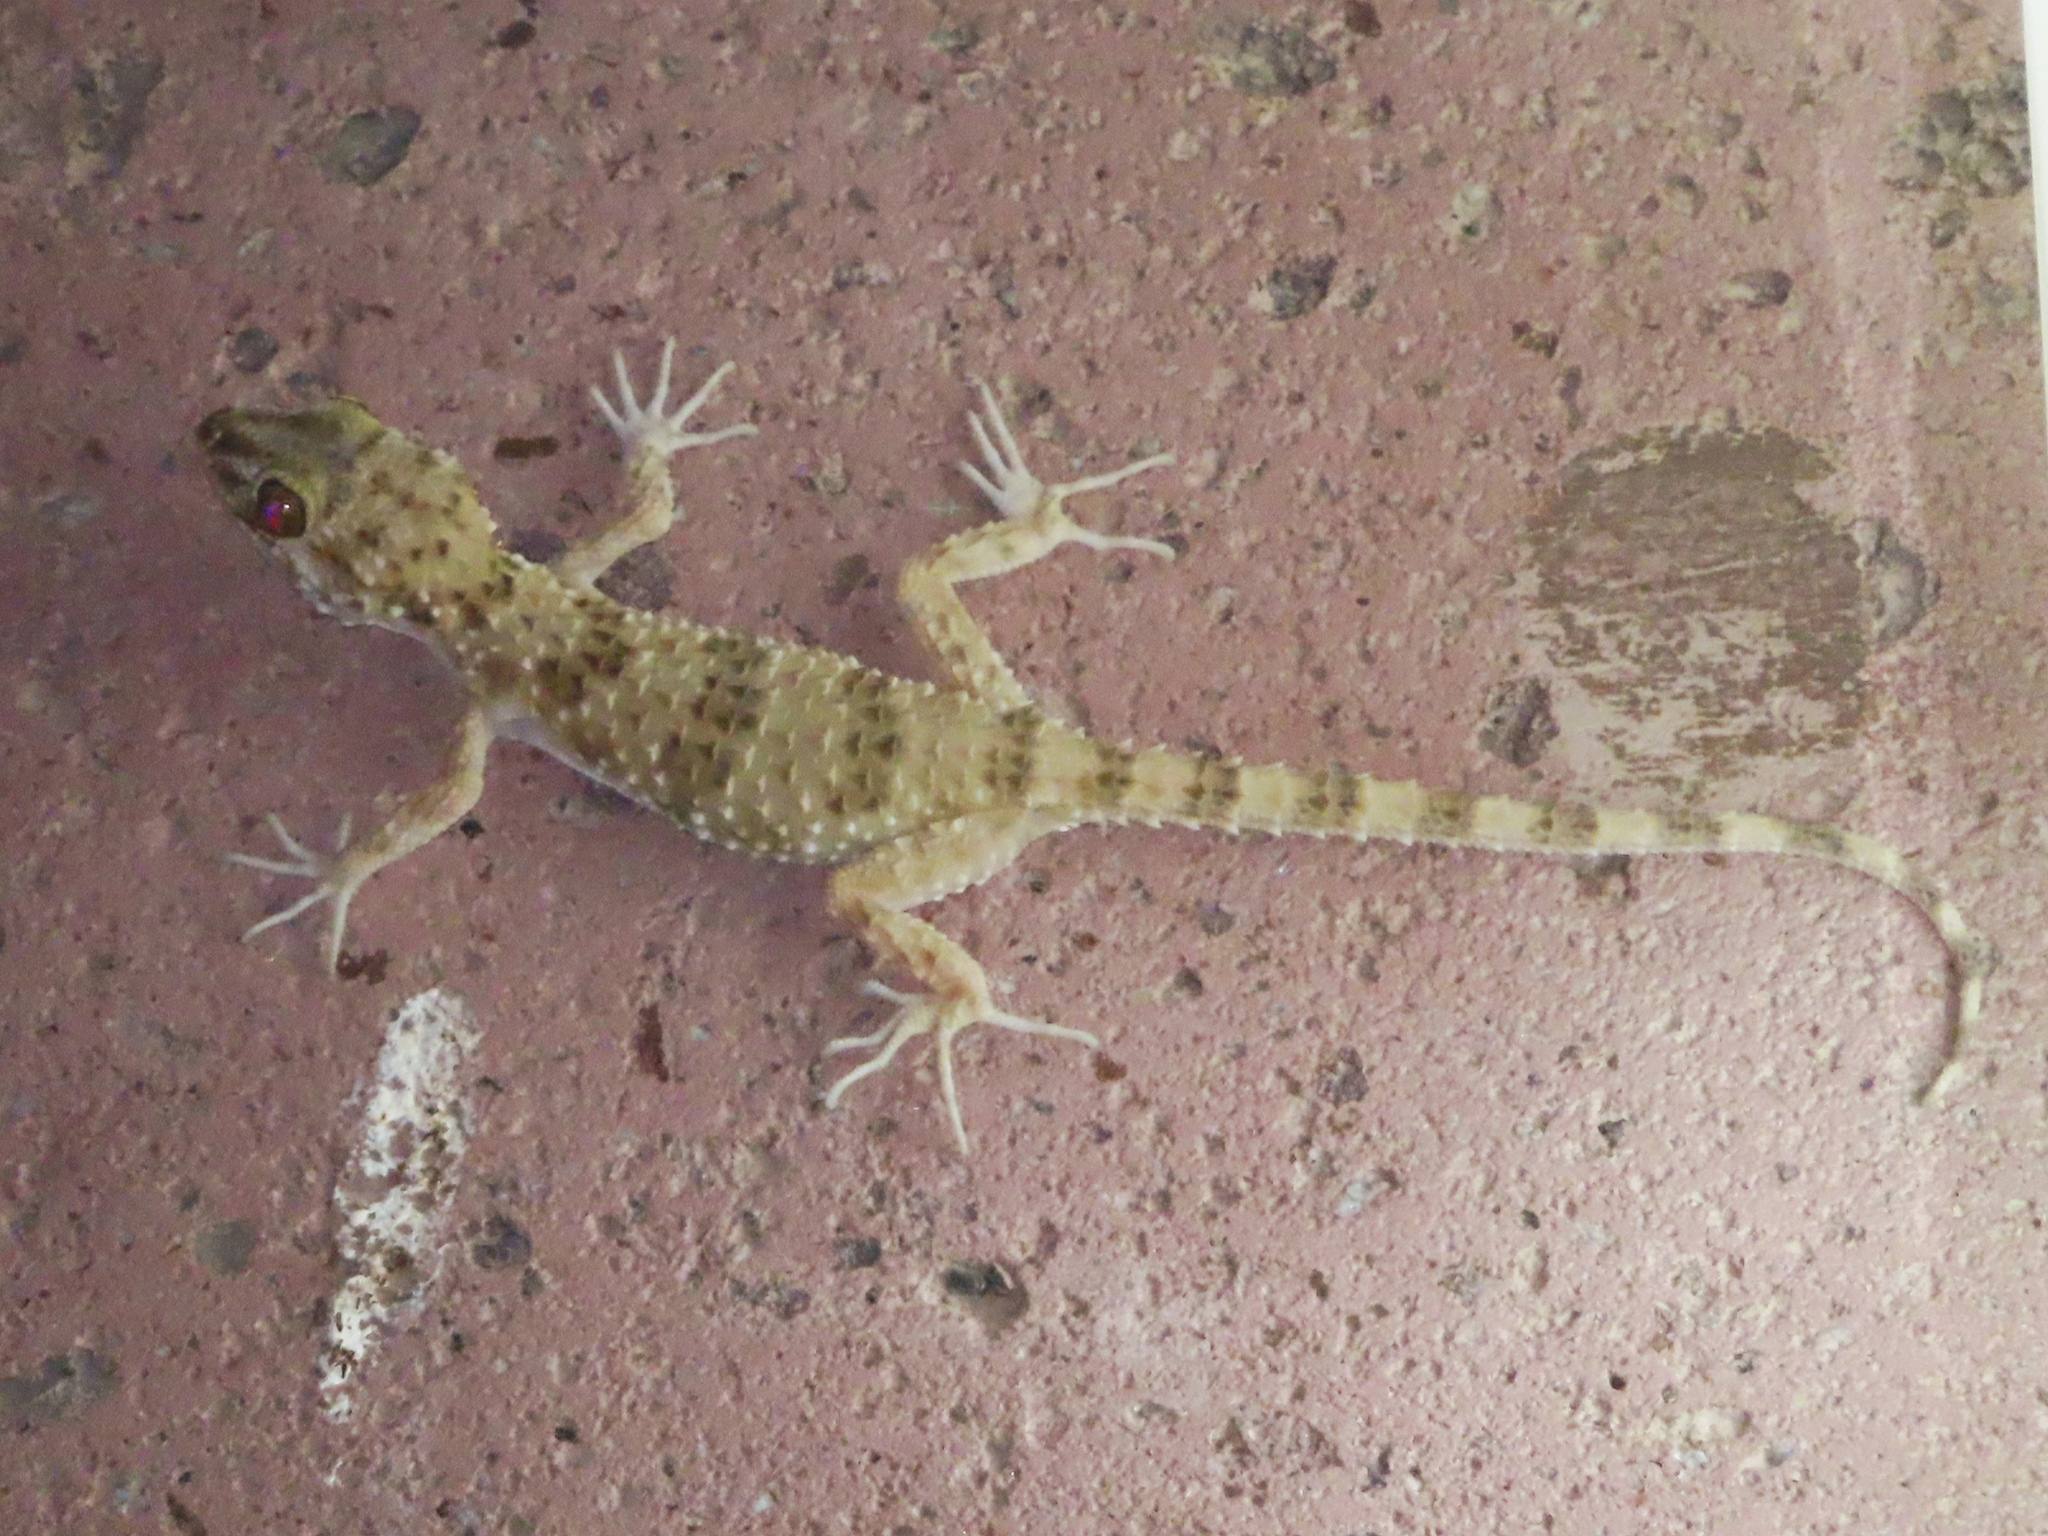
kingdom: Animalia
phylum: Chordata
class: Squamata
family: Gekkonidae
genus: Tenuidactylus
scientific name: Tenuidactylus caspius
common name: Caspian bent-toed gecko
